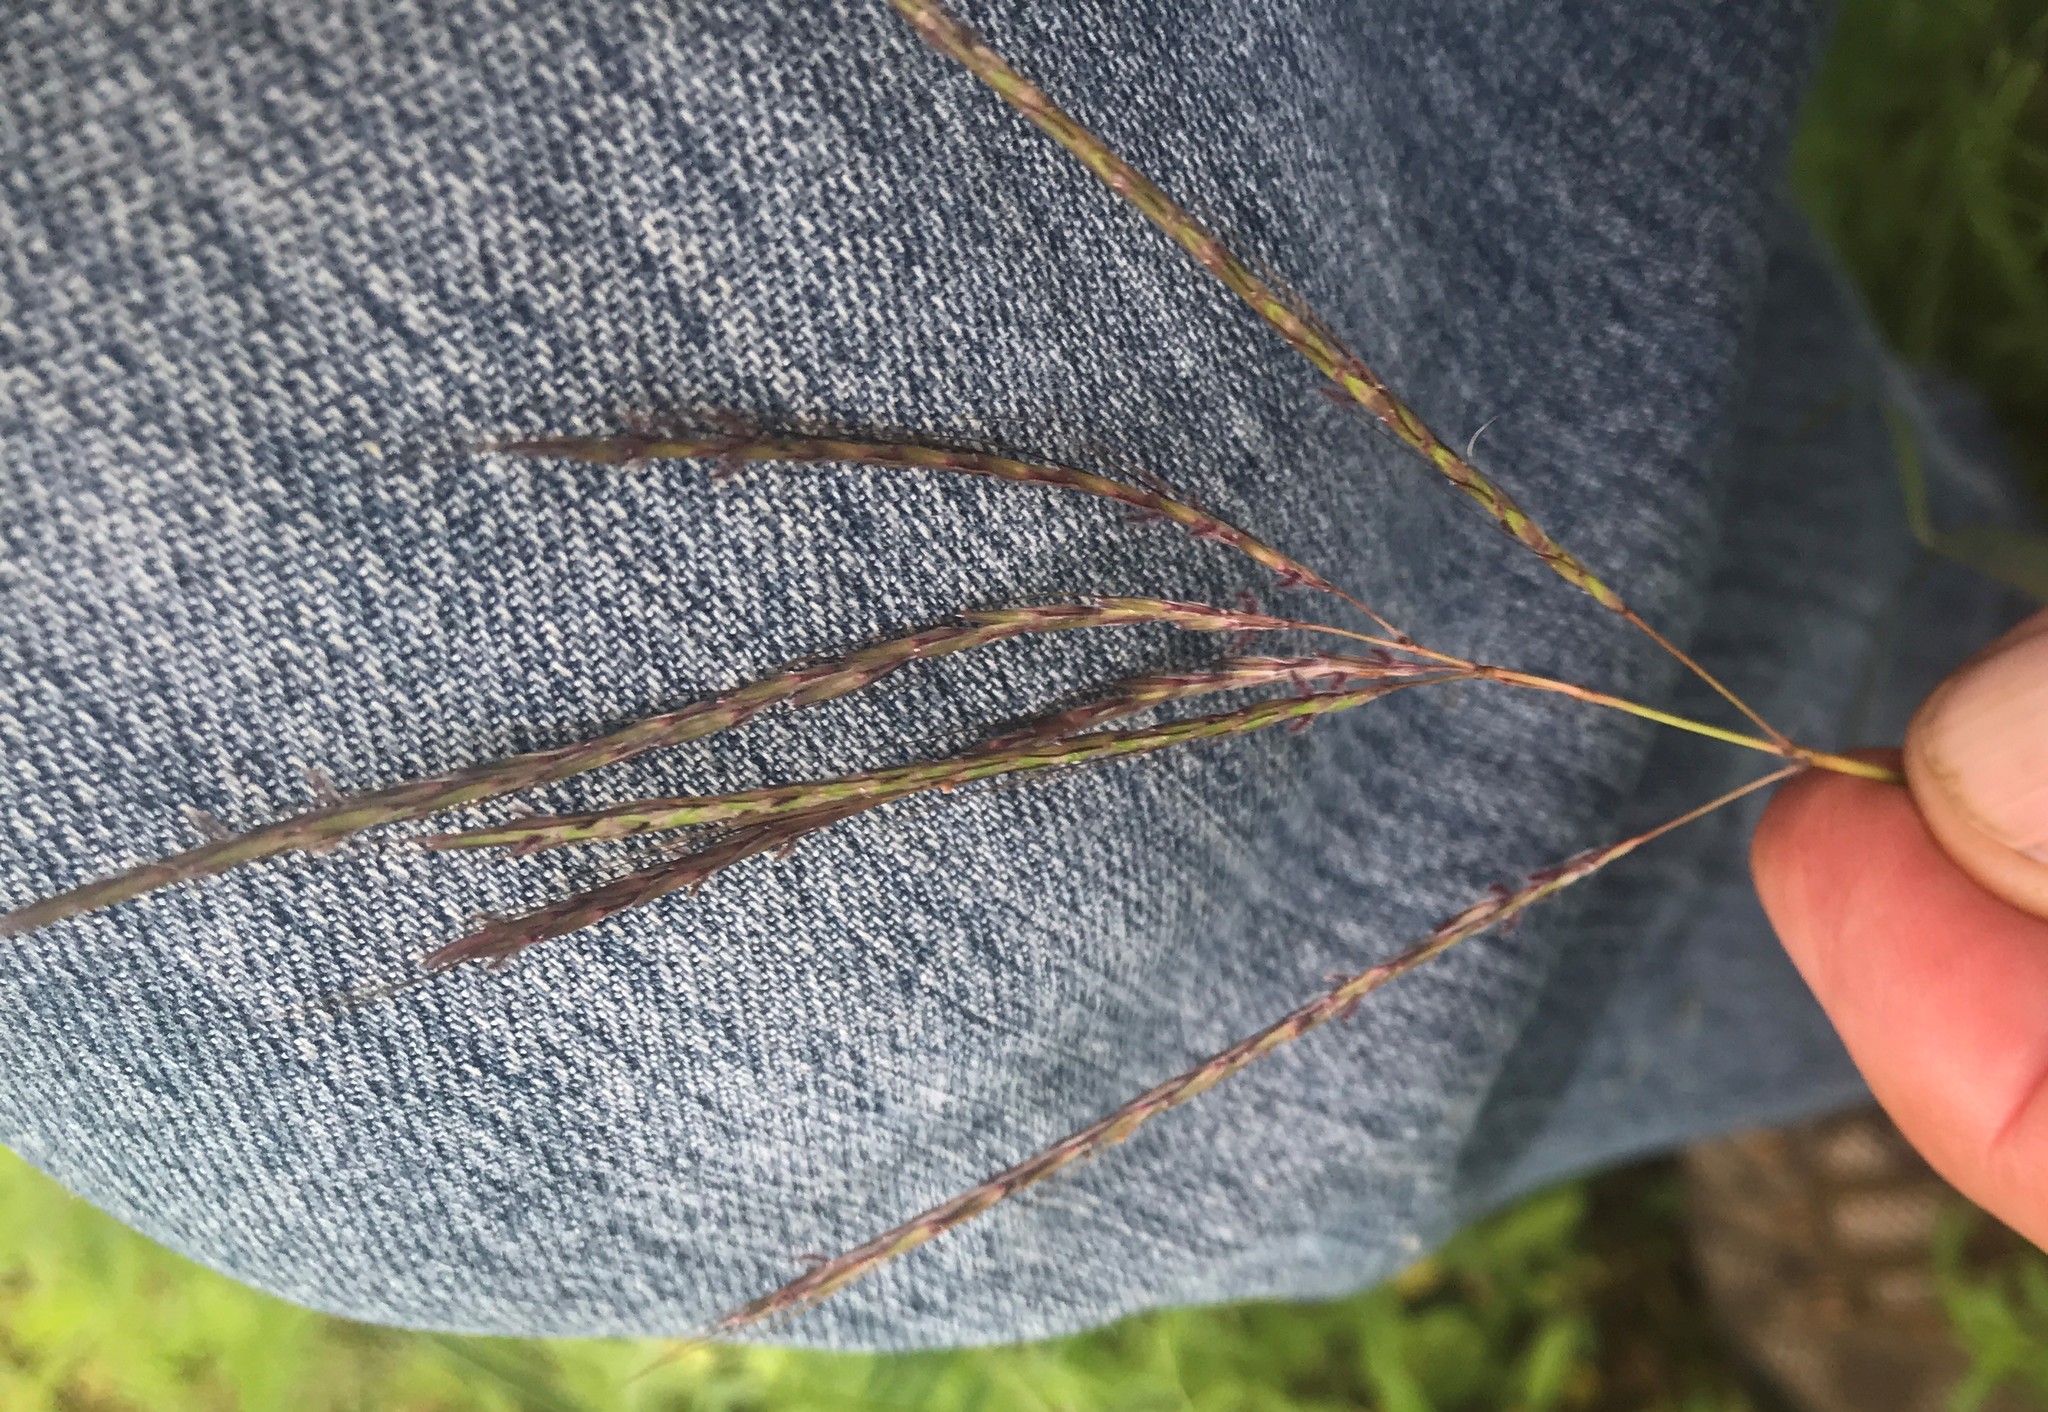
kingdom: Plantae
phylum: Tracheophyta
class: Liliopsida
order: Poales
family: Poaceae
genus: Bothriochloa
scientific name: Bothriochloa ischaemum
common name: Yellow bluestem
